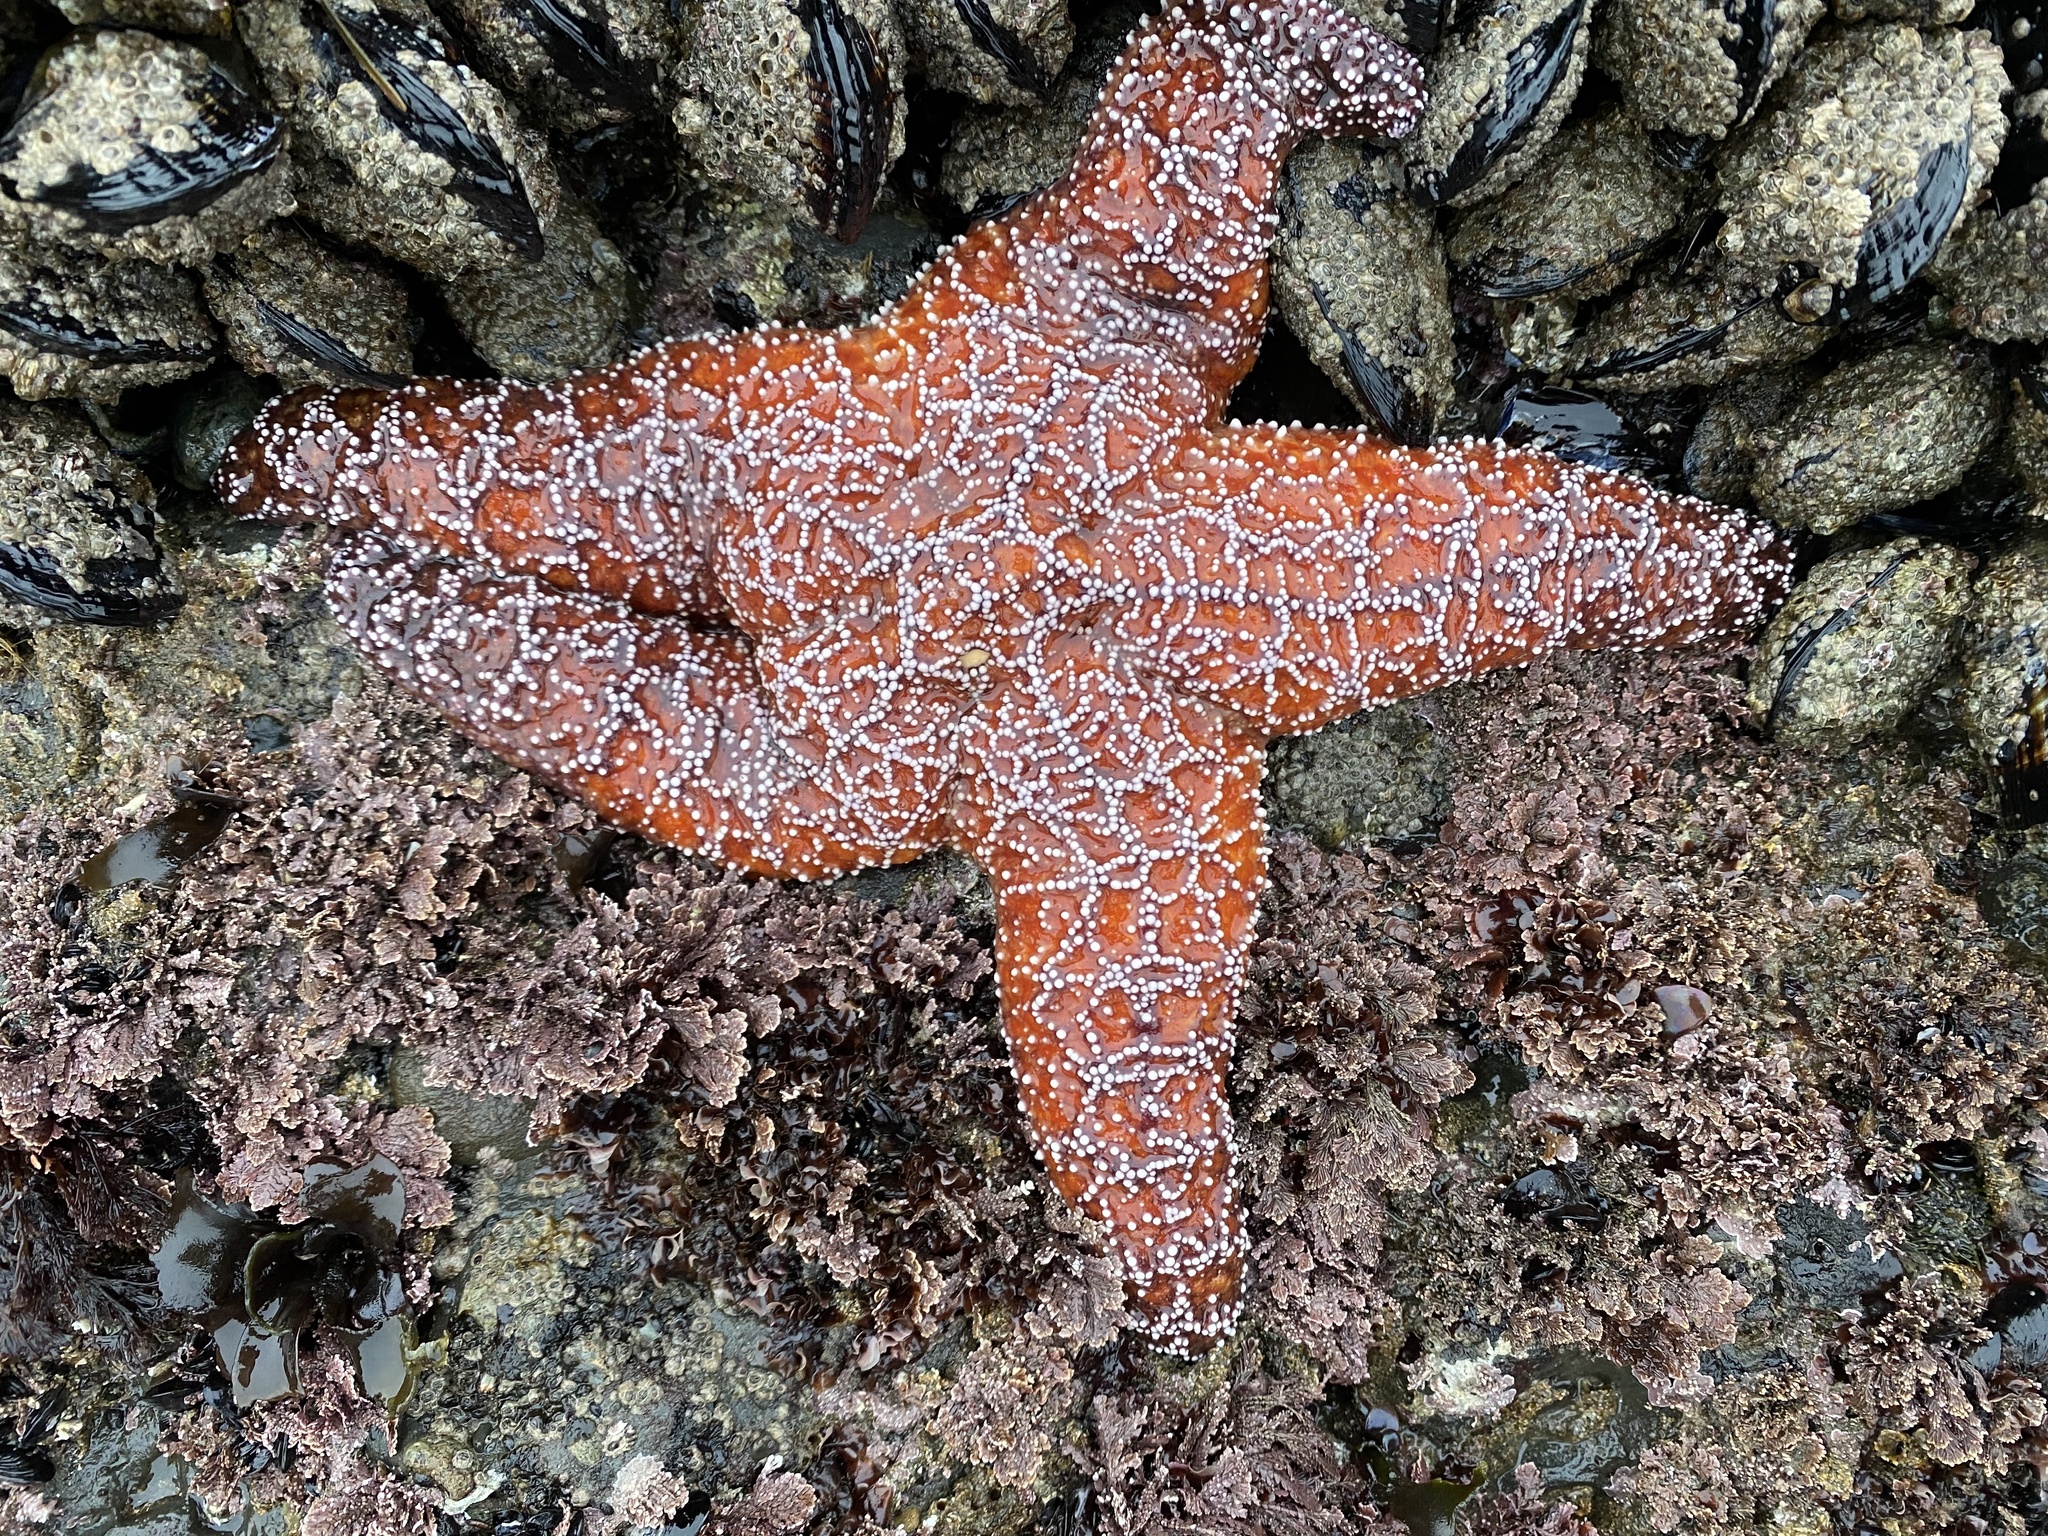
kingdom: Animalia
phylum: Echinodermata
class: Asteroidea
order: Forcipulatida
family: Asteriidae
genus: Pisaster
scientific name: Pisaster ochraceus
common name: Ochre stars
